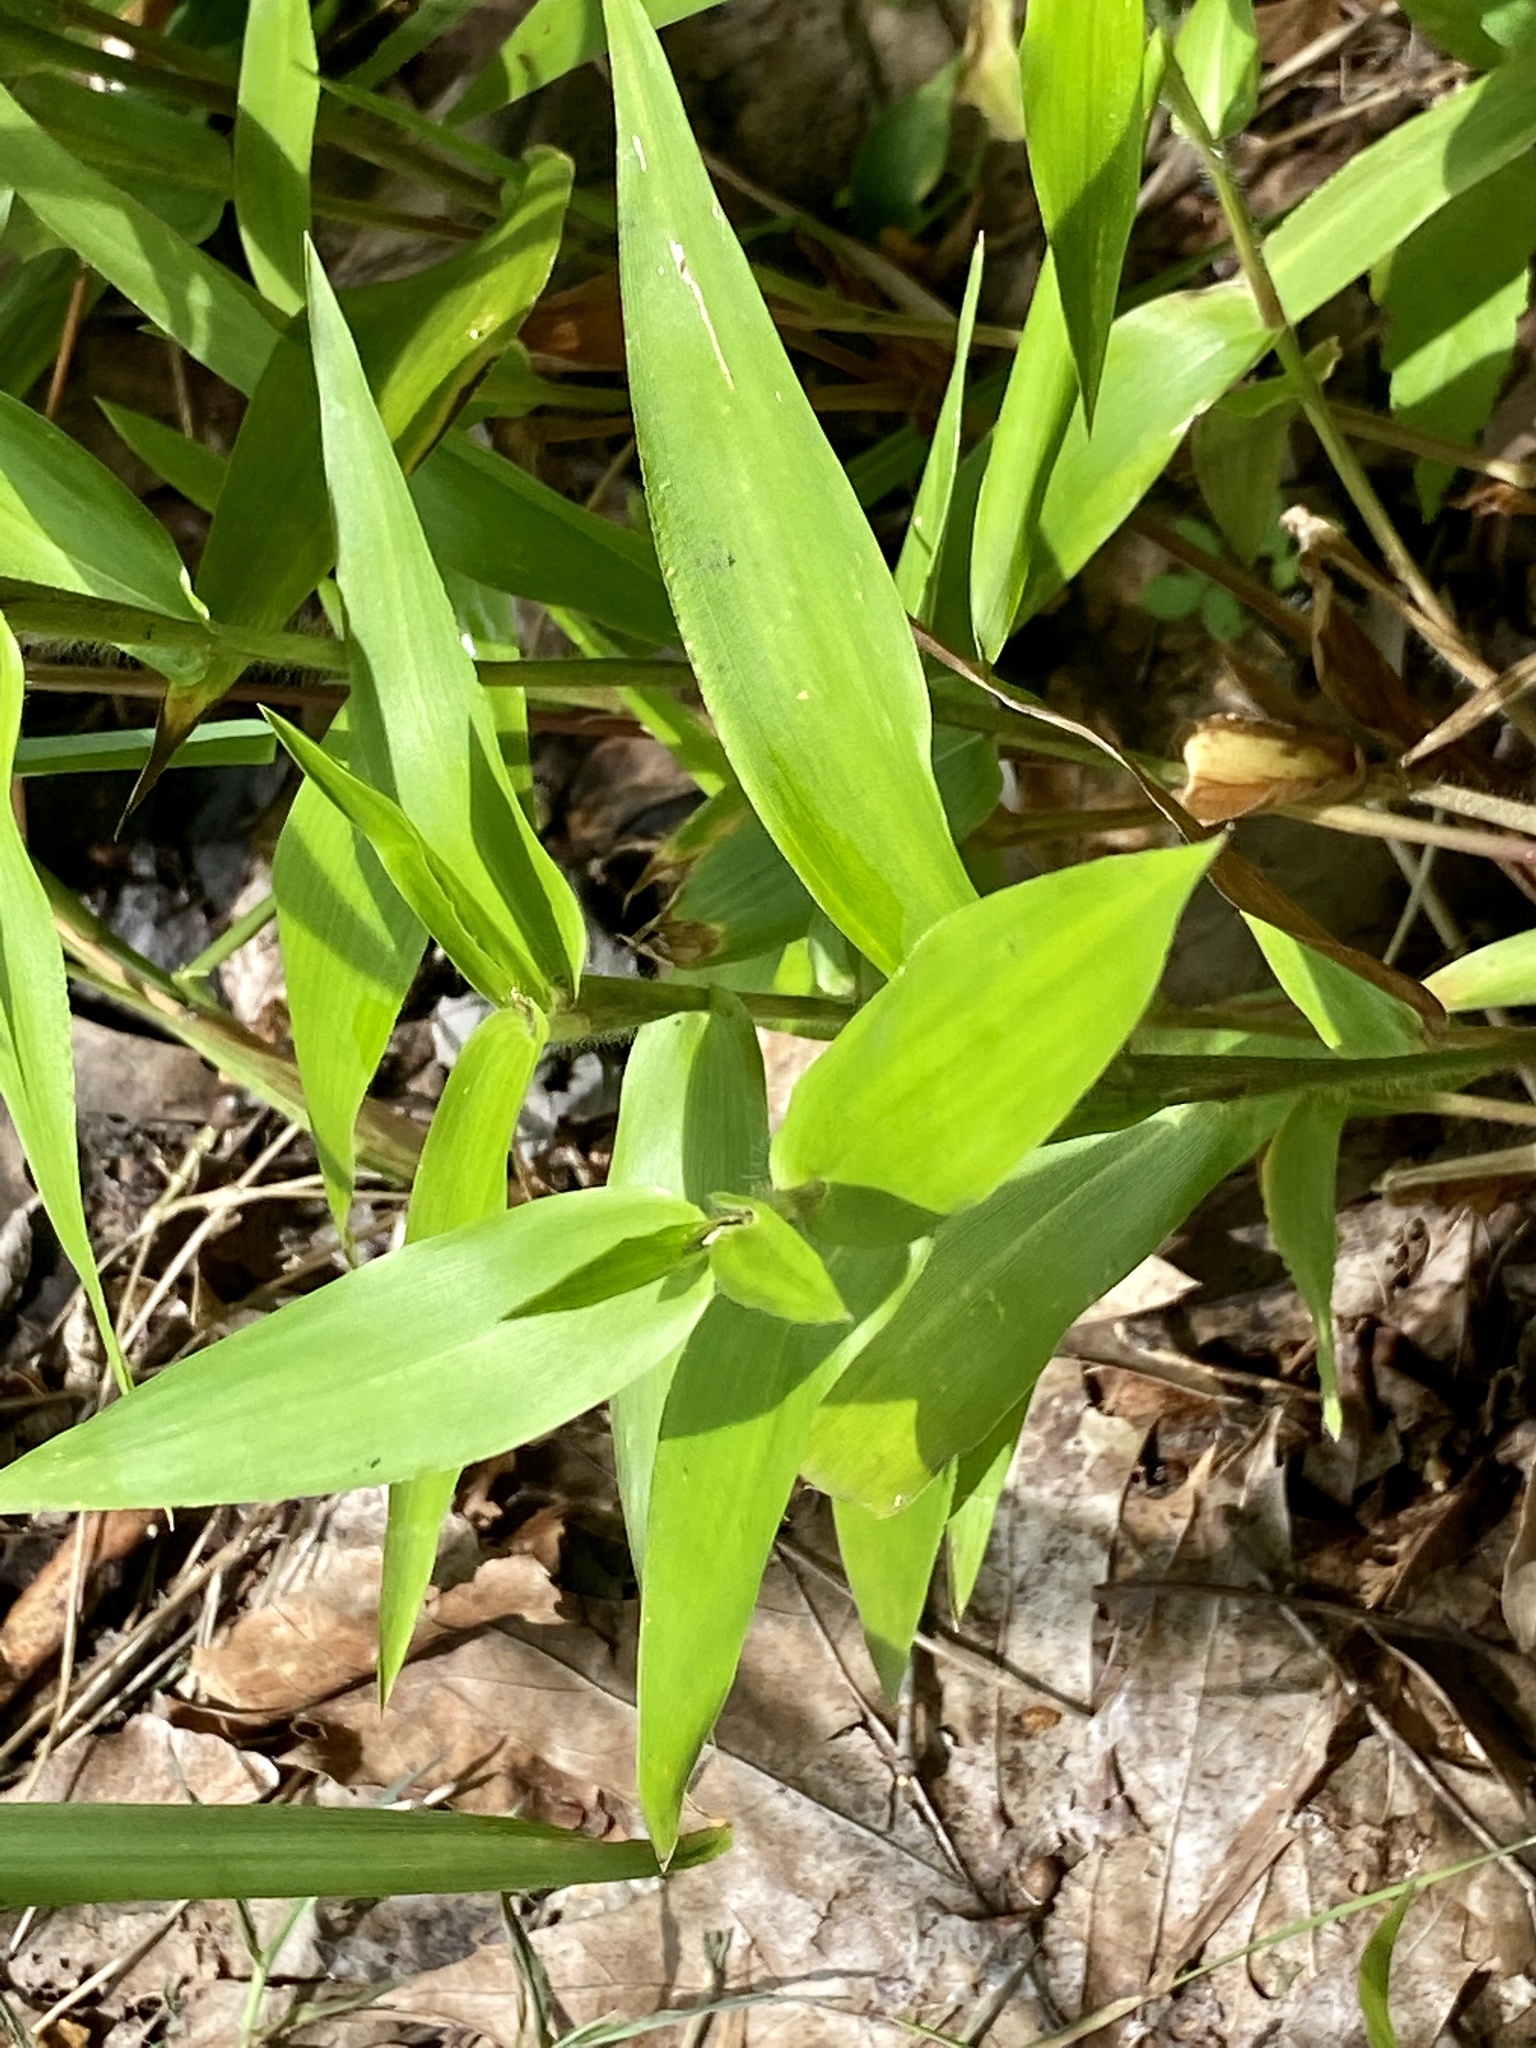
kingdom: Plantae
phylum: Tracheophyta
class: Liliopsida
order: Poales
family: Poaceae
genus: Dichanthelium
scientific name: Dichanthelium clandestinum
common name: Deer-tongue grass
